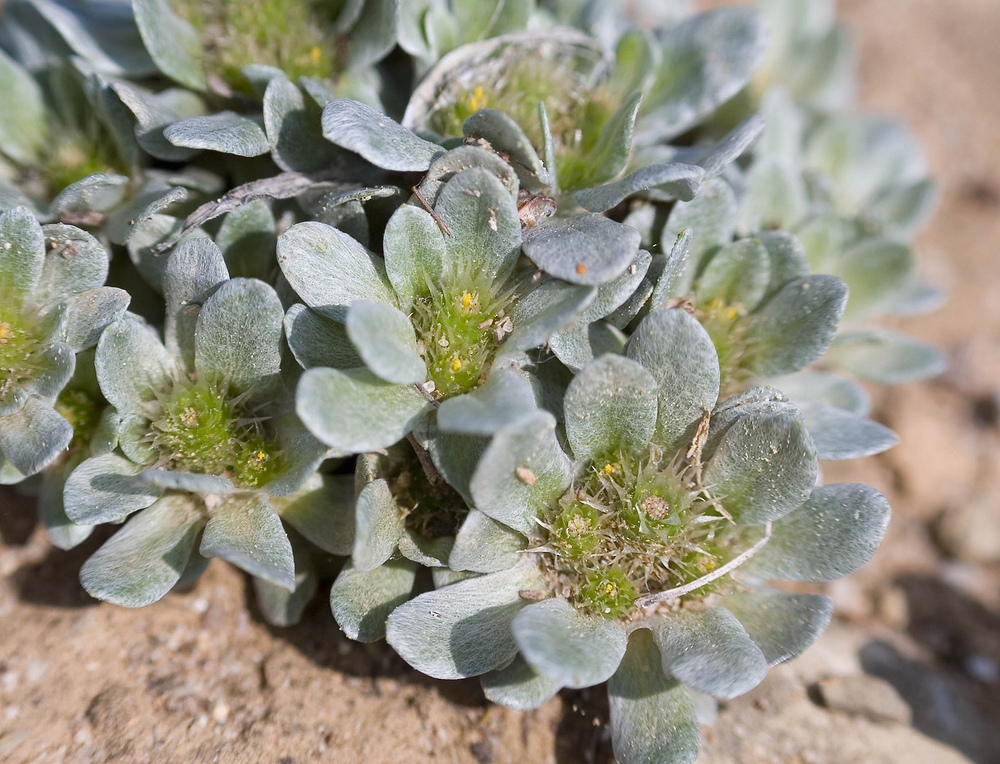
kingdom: Plantae
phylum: Tracheophyta
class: Magnoliopsida
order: Asterales
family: Asteraceae
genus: Filago
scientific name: Filago pygmaea
